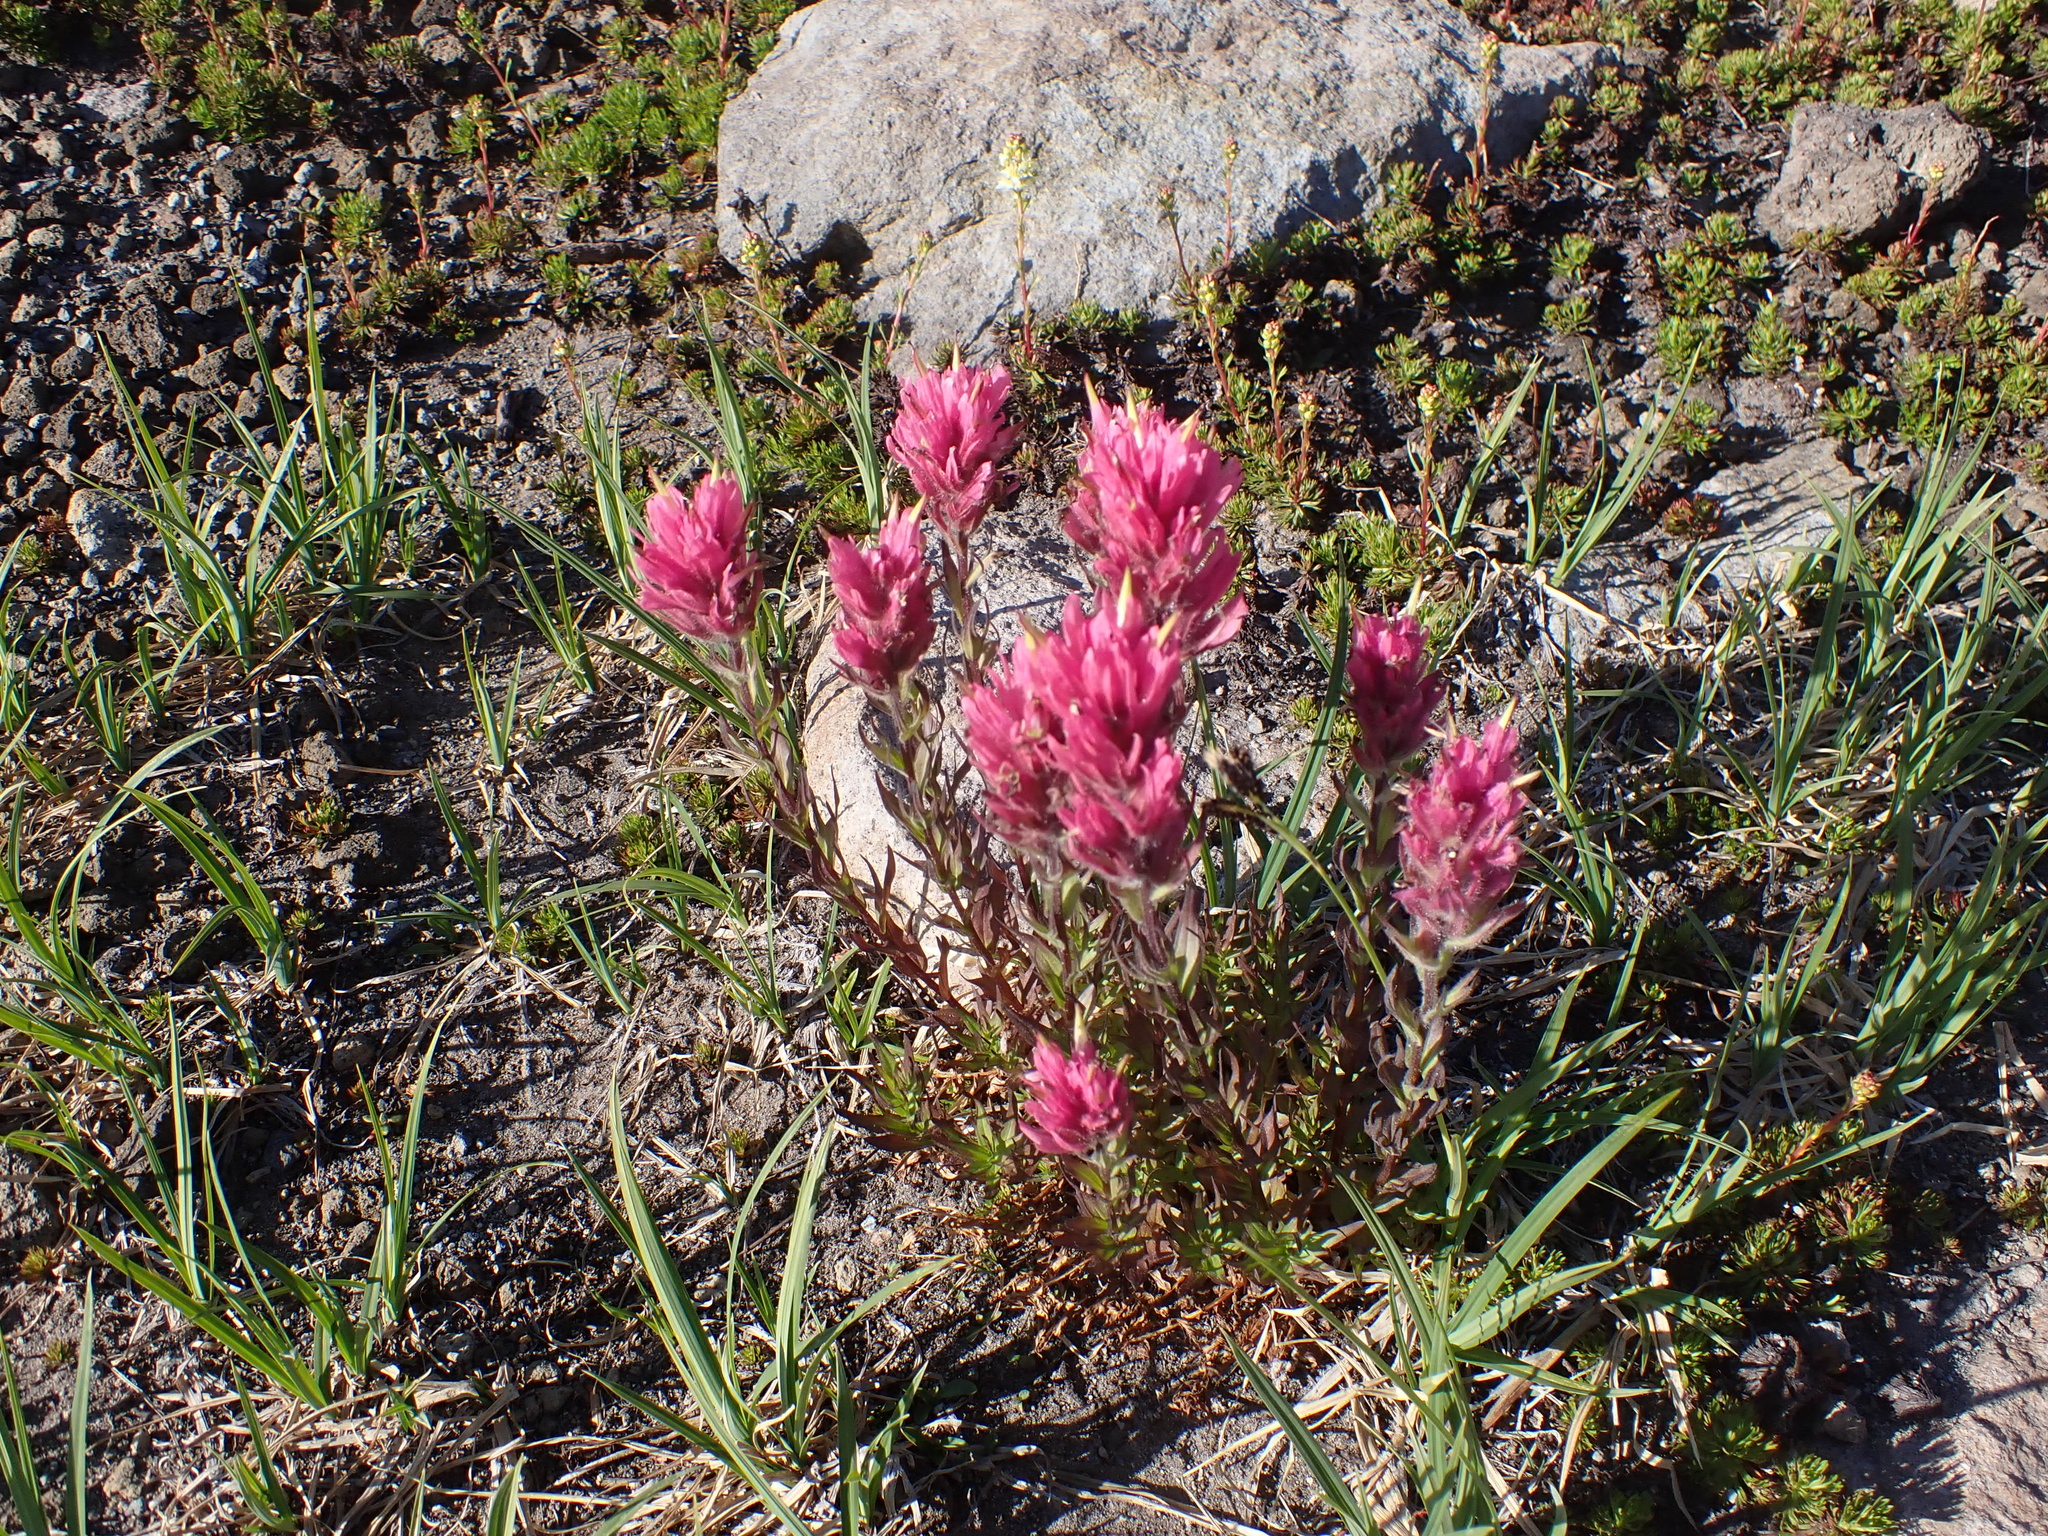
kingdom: Plantae
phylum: Tracheophyta
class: Magnoliopsida
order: Lamiales
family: Orobanchaceae
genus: Castilleja
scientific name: Castilleja parviflora
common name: Mountain paintbrush
